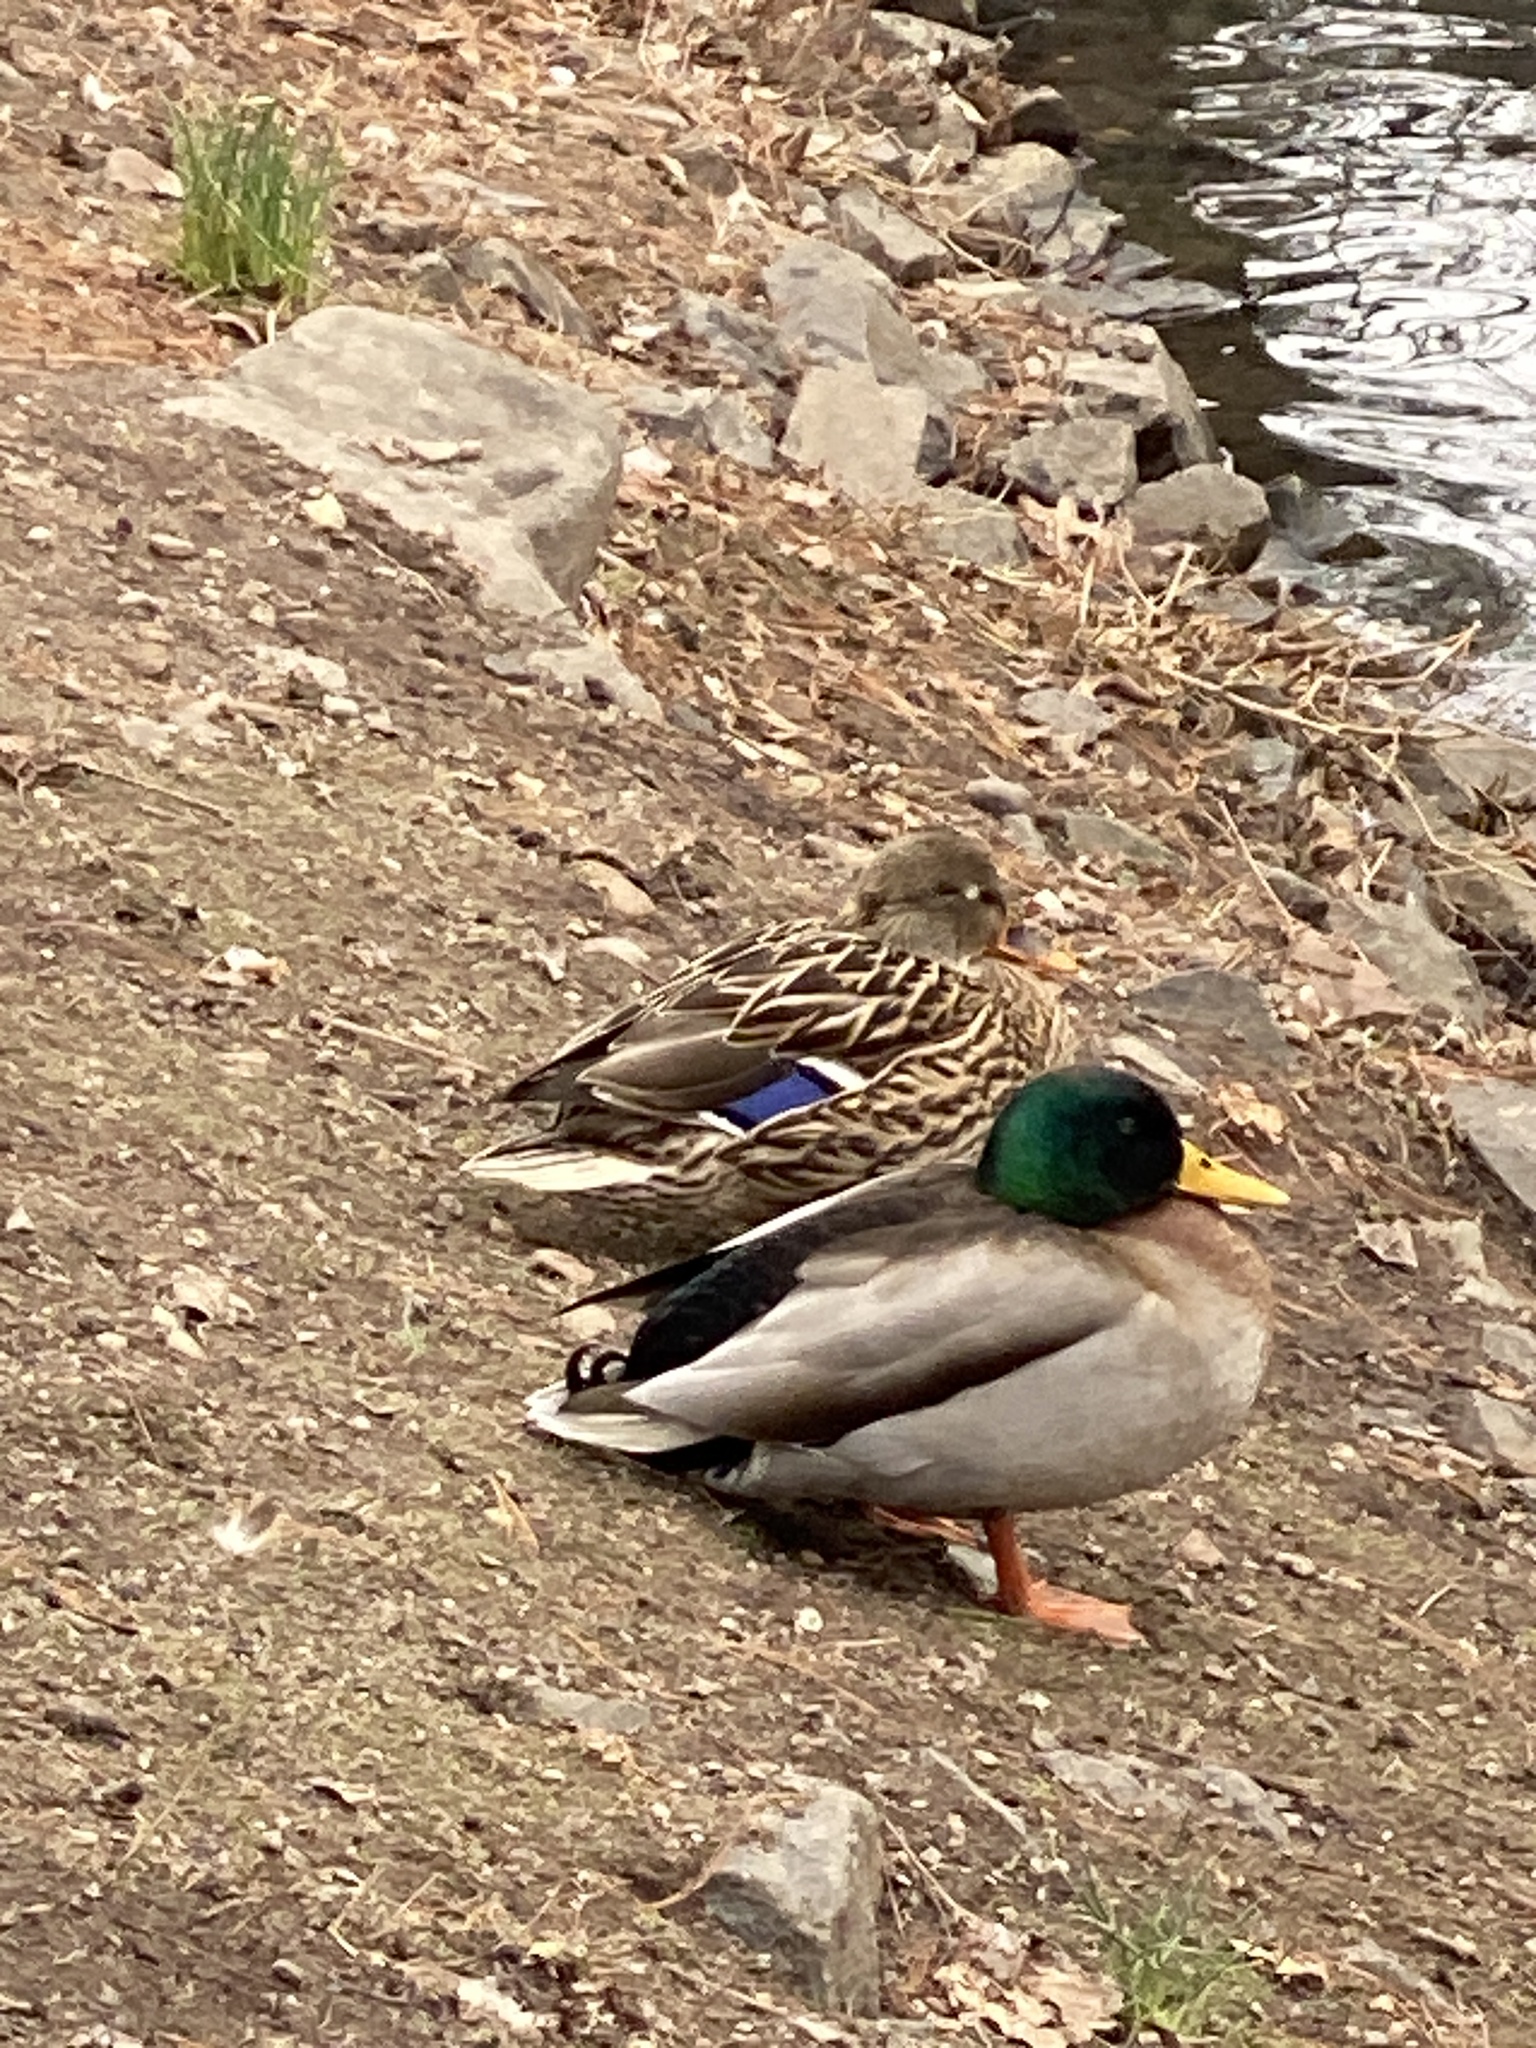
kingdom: Animalia
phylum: Chordata
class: Aves
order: Anseriformes
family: Anatidae
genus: Anas
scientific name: Anas platyrhynchos
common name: Mallard
